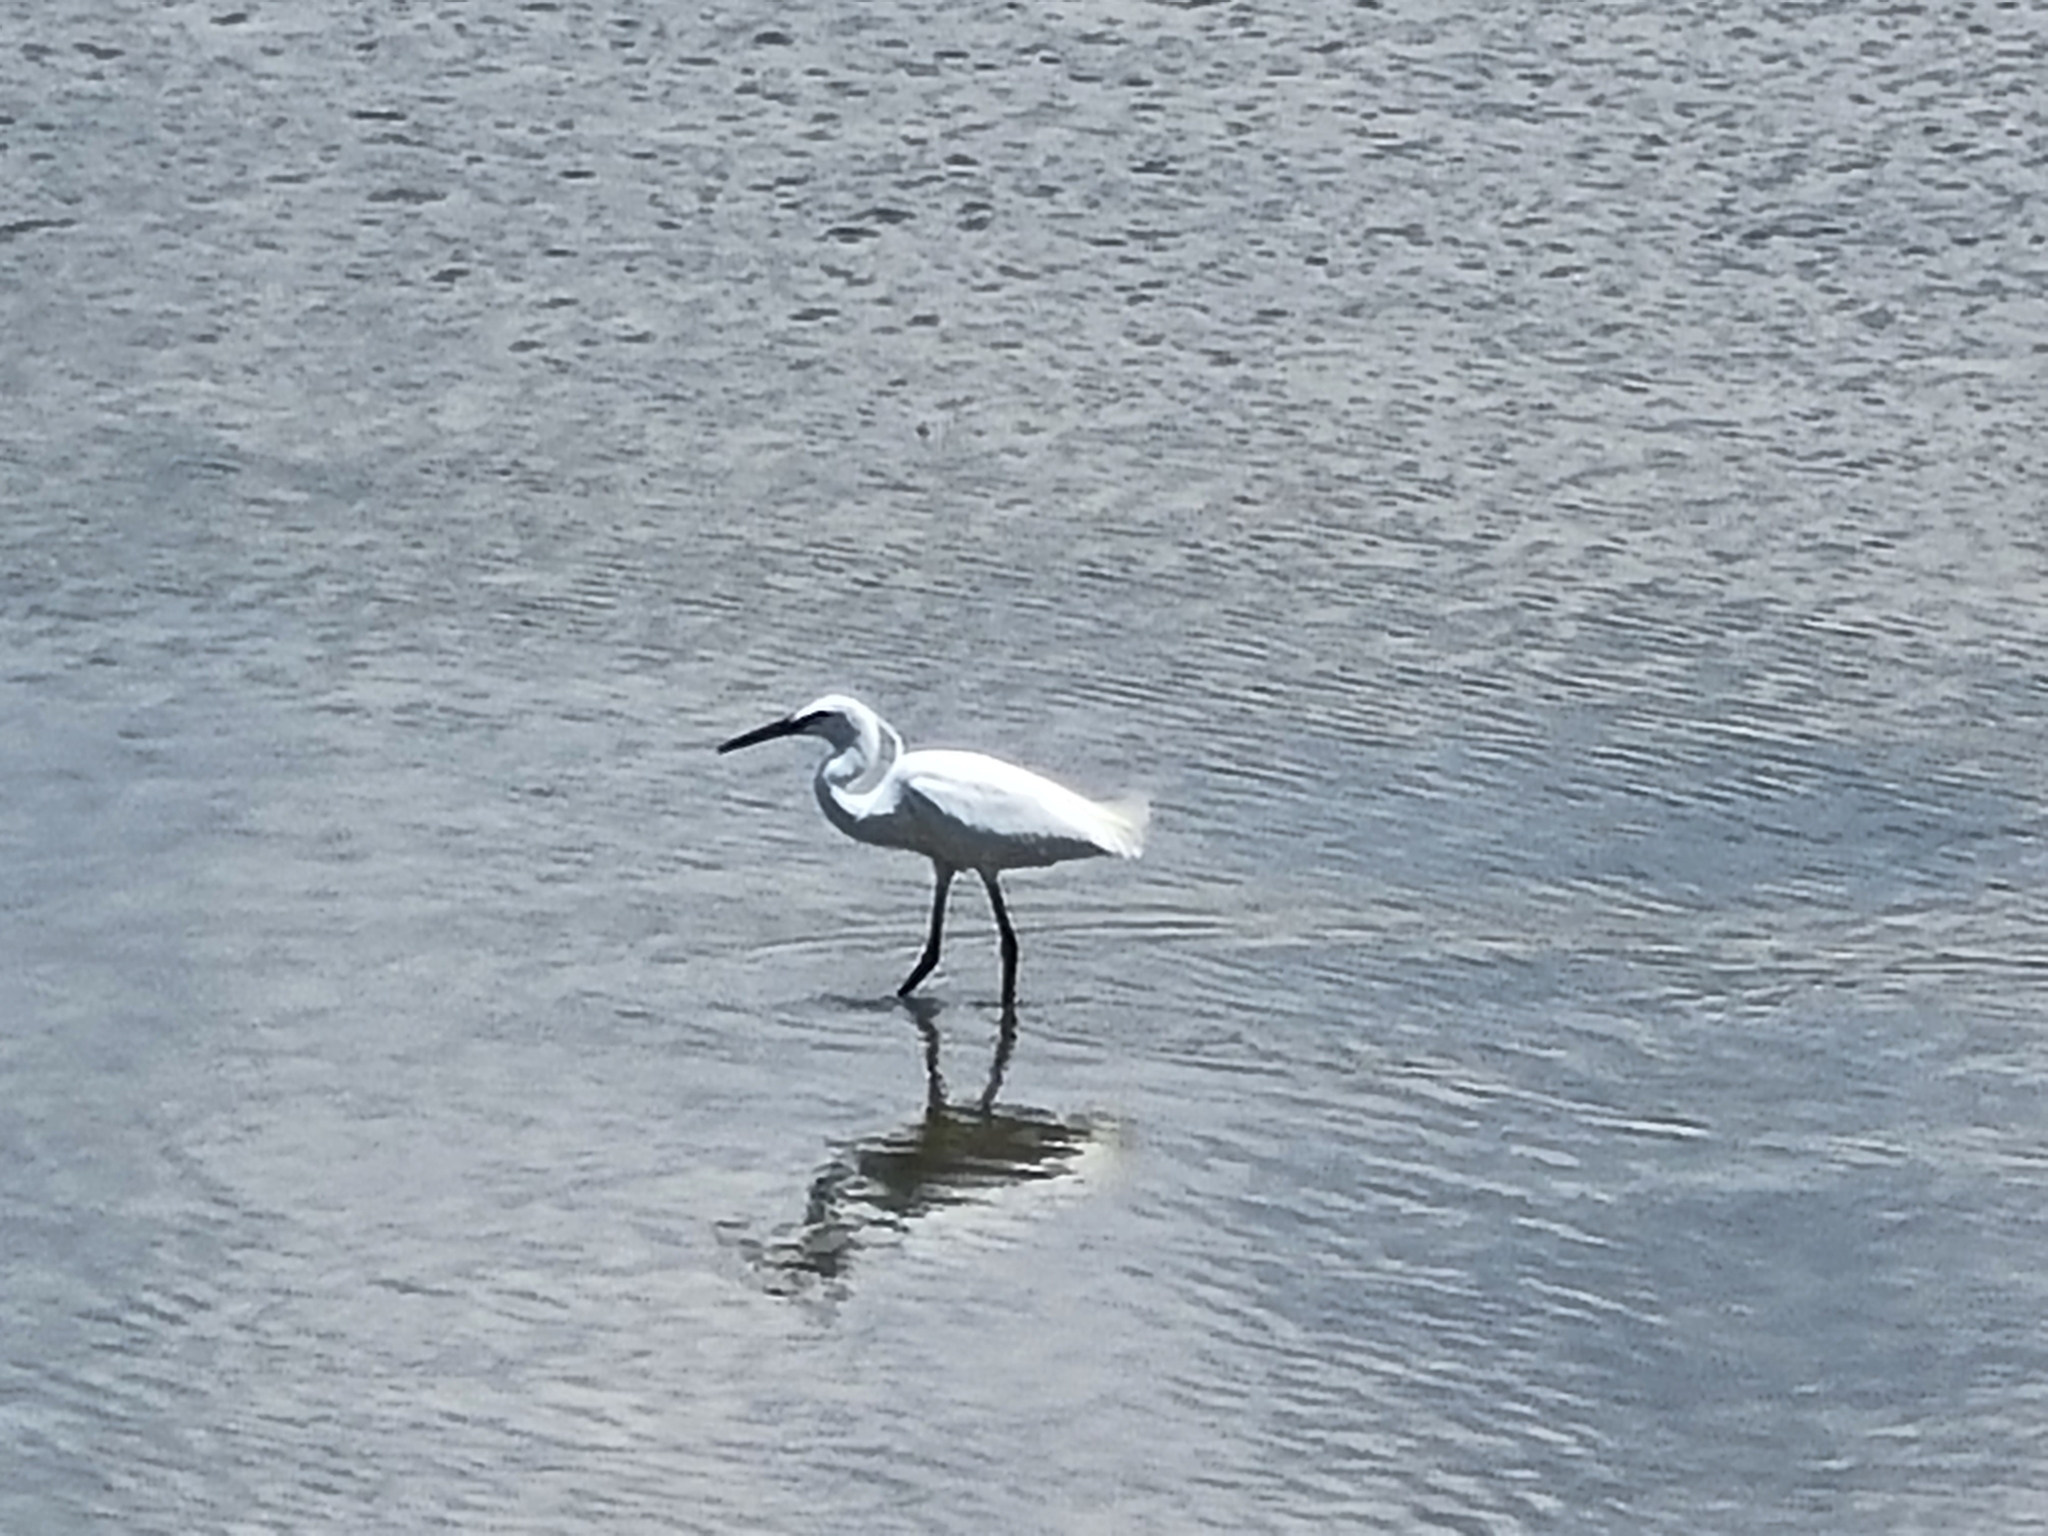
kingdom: Animalia
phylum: Chordata
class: Aves
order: Pelecaniformes
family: Ardeidae
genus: Egretta
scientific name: Egretta garzetta
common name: Little egret
